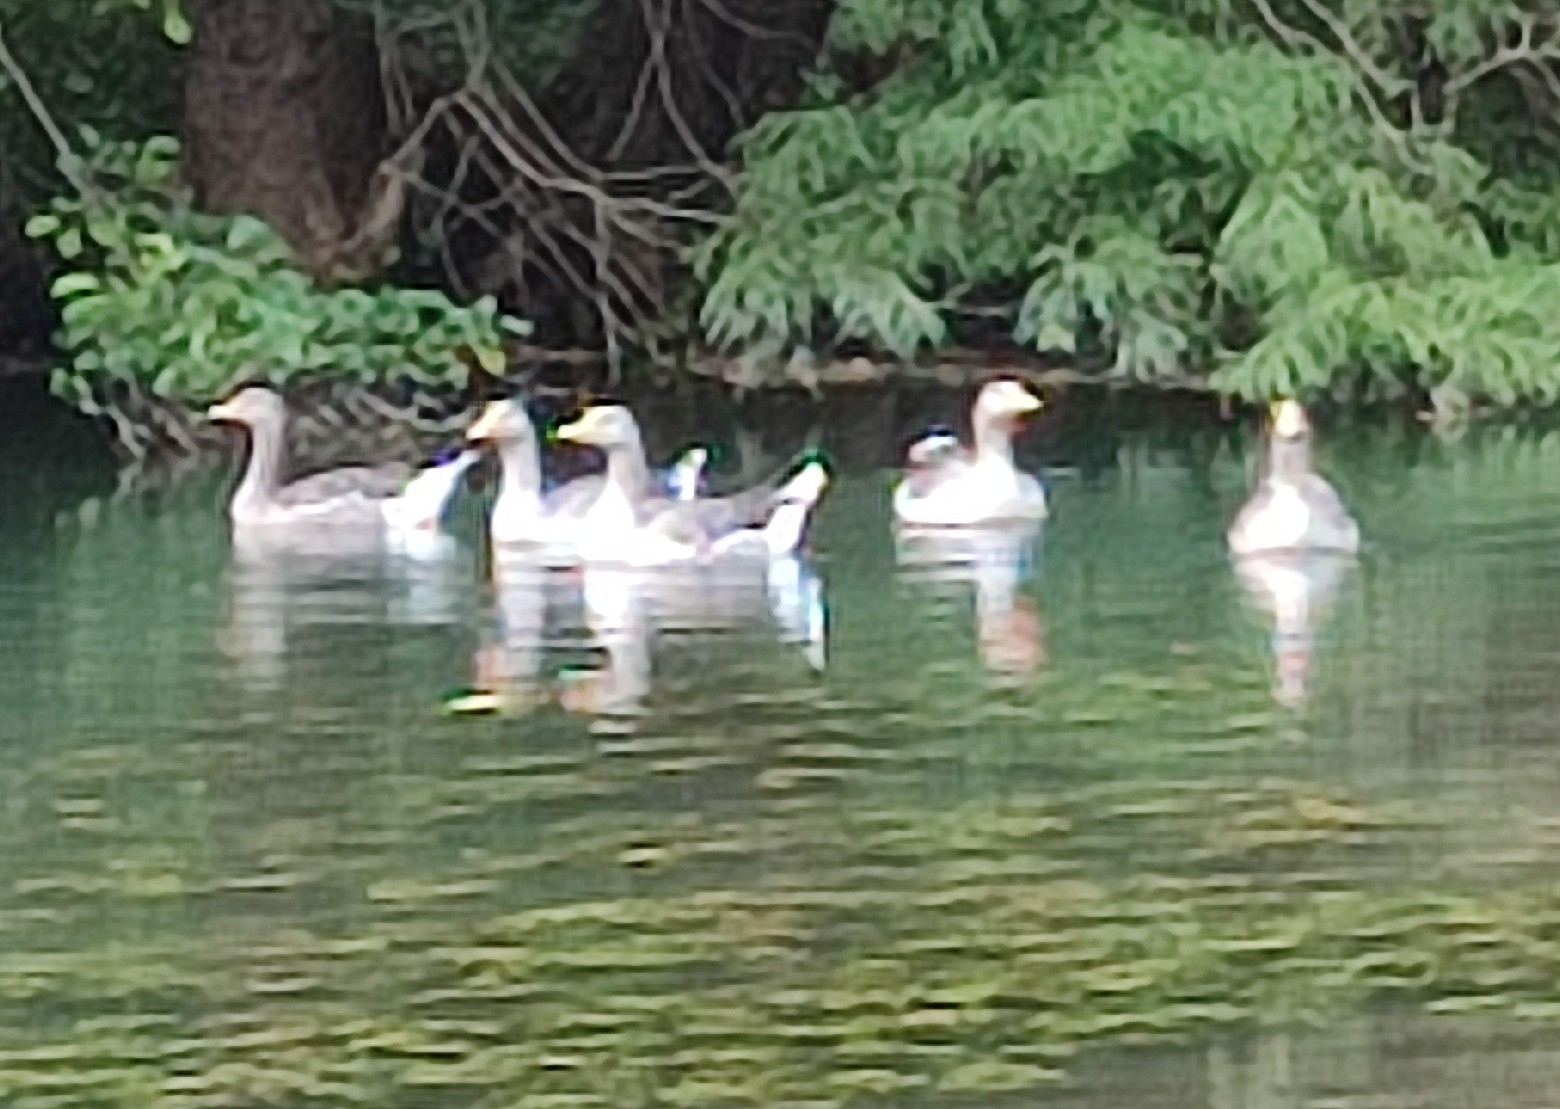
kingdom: Animalia
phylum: Chordata
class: Aves
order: Anseriformes
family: Anatidae
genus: Anser
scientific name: Anser anser
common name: Greylag goose
